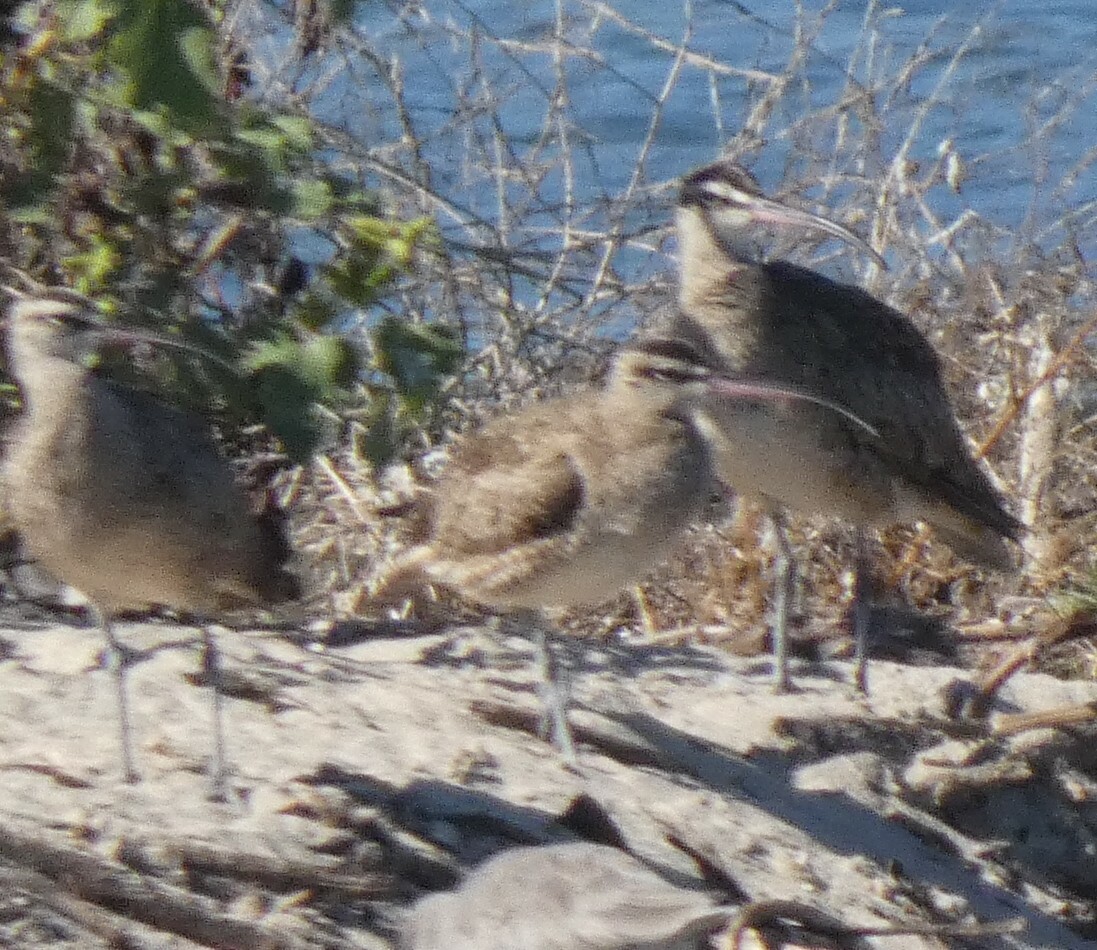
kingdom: Animalia
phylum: Chordata
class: Aves
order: Charadriiformes
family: Scolopacidae
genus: Numenius
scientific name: Numenius phaeopus
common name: Whimbrel
